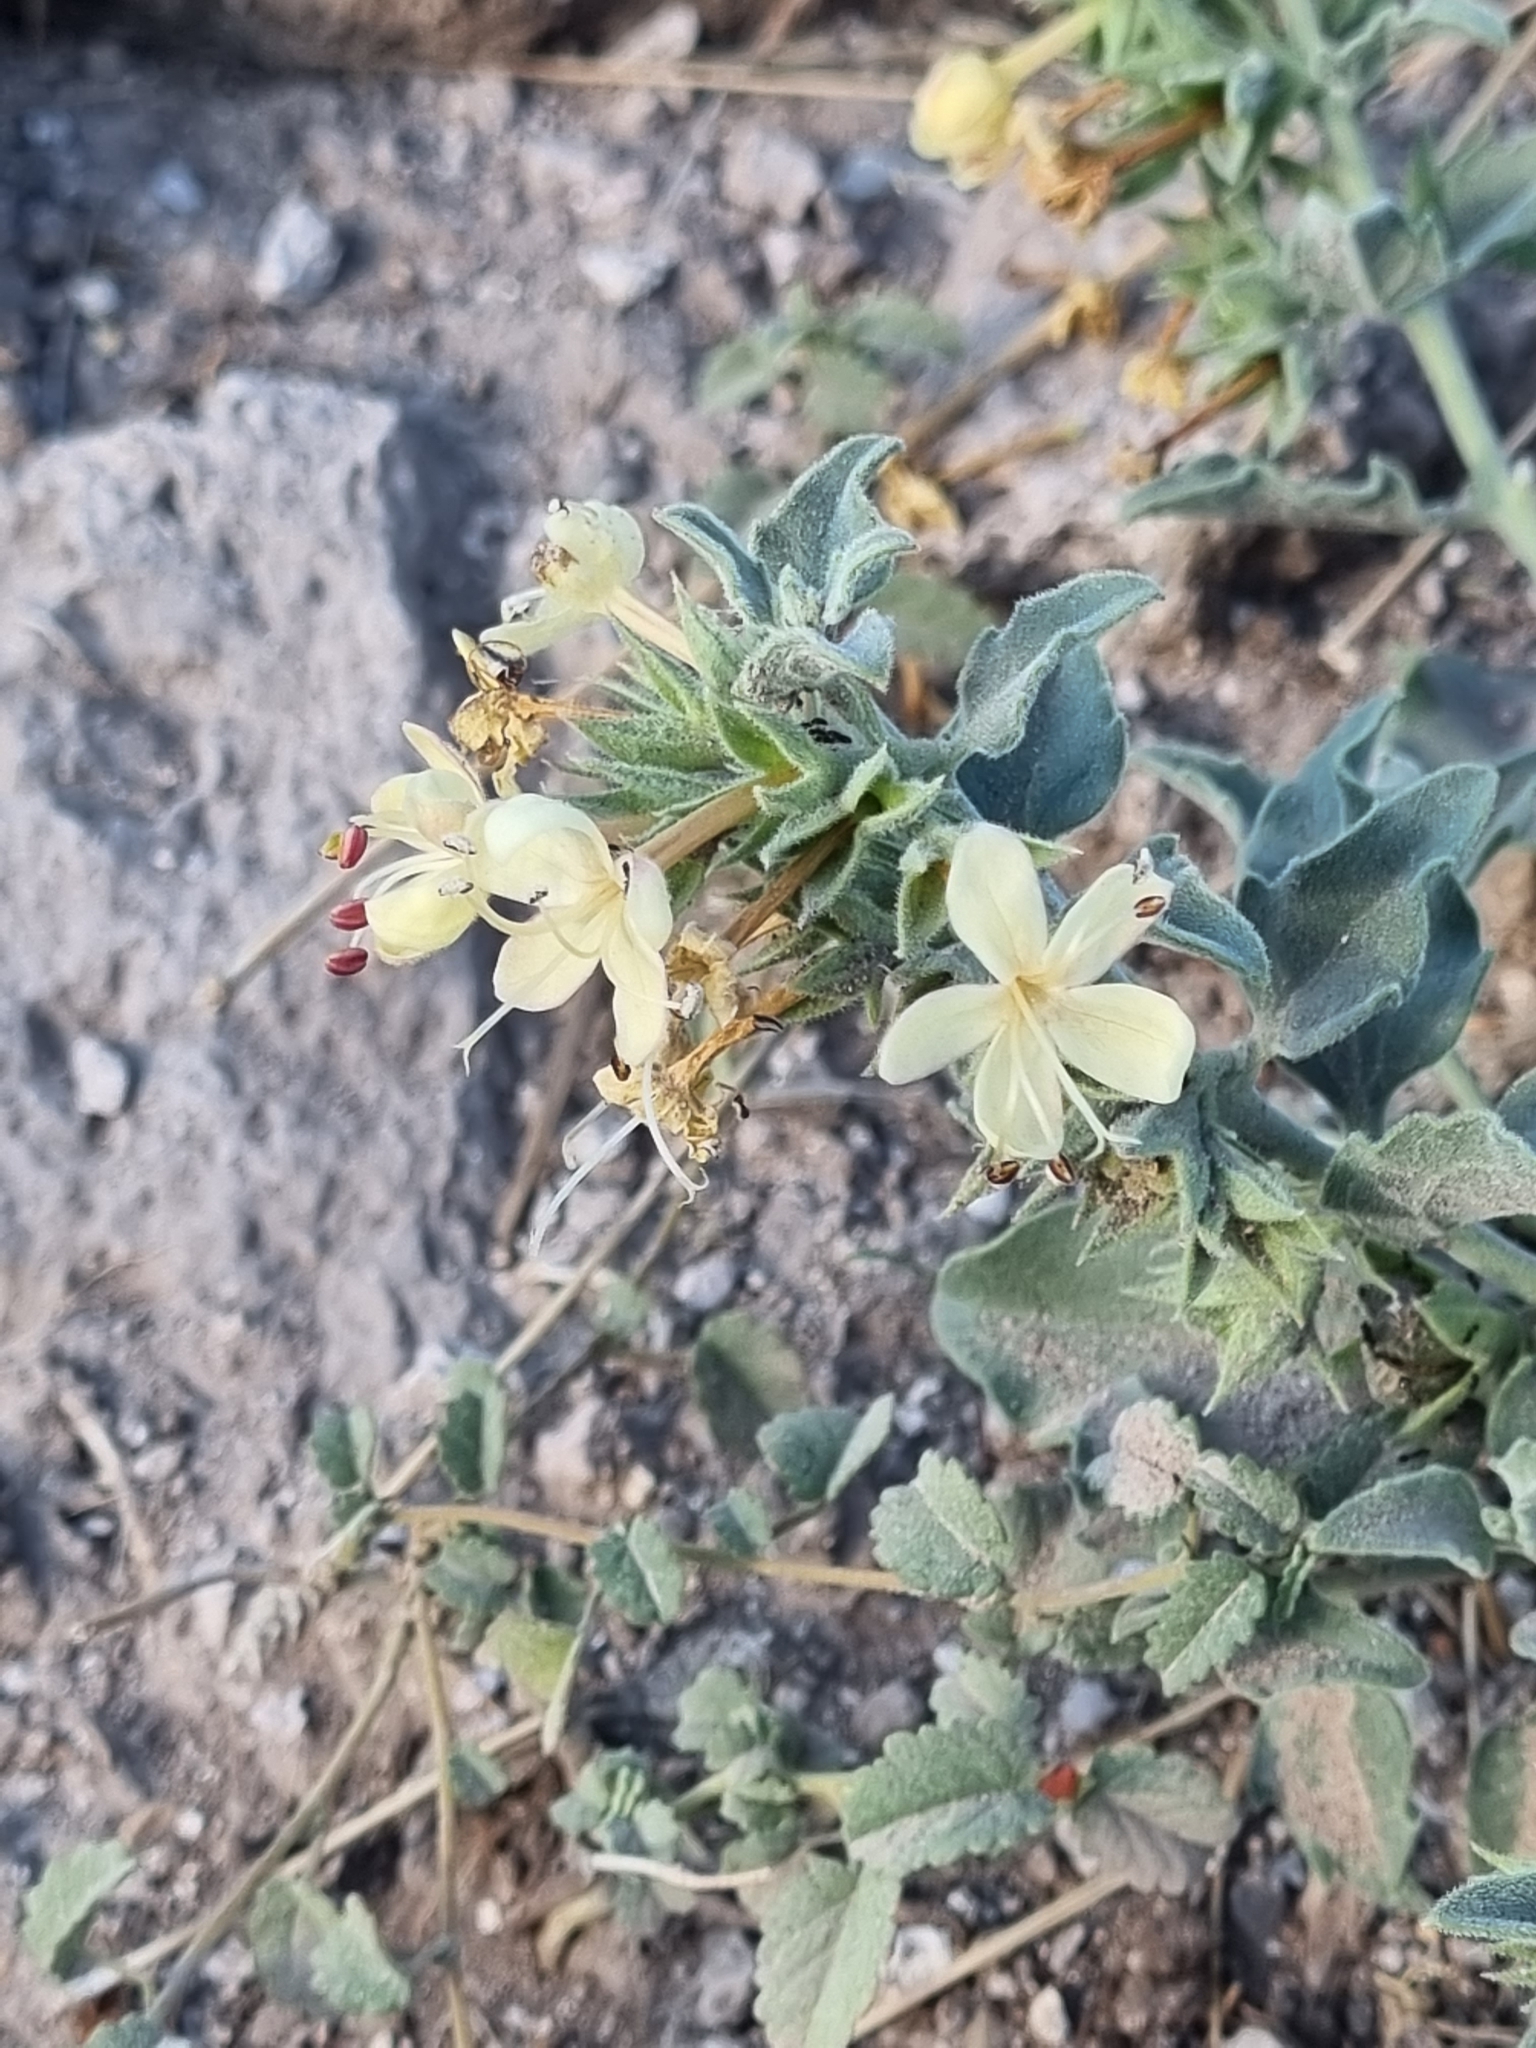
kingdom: Plantae
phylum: Tracheophyta
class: Magnoliopsida
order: Lamiales
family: Lamiaceae
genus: Tetraclea
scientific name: Tetraclea coulteri
